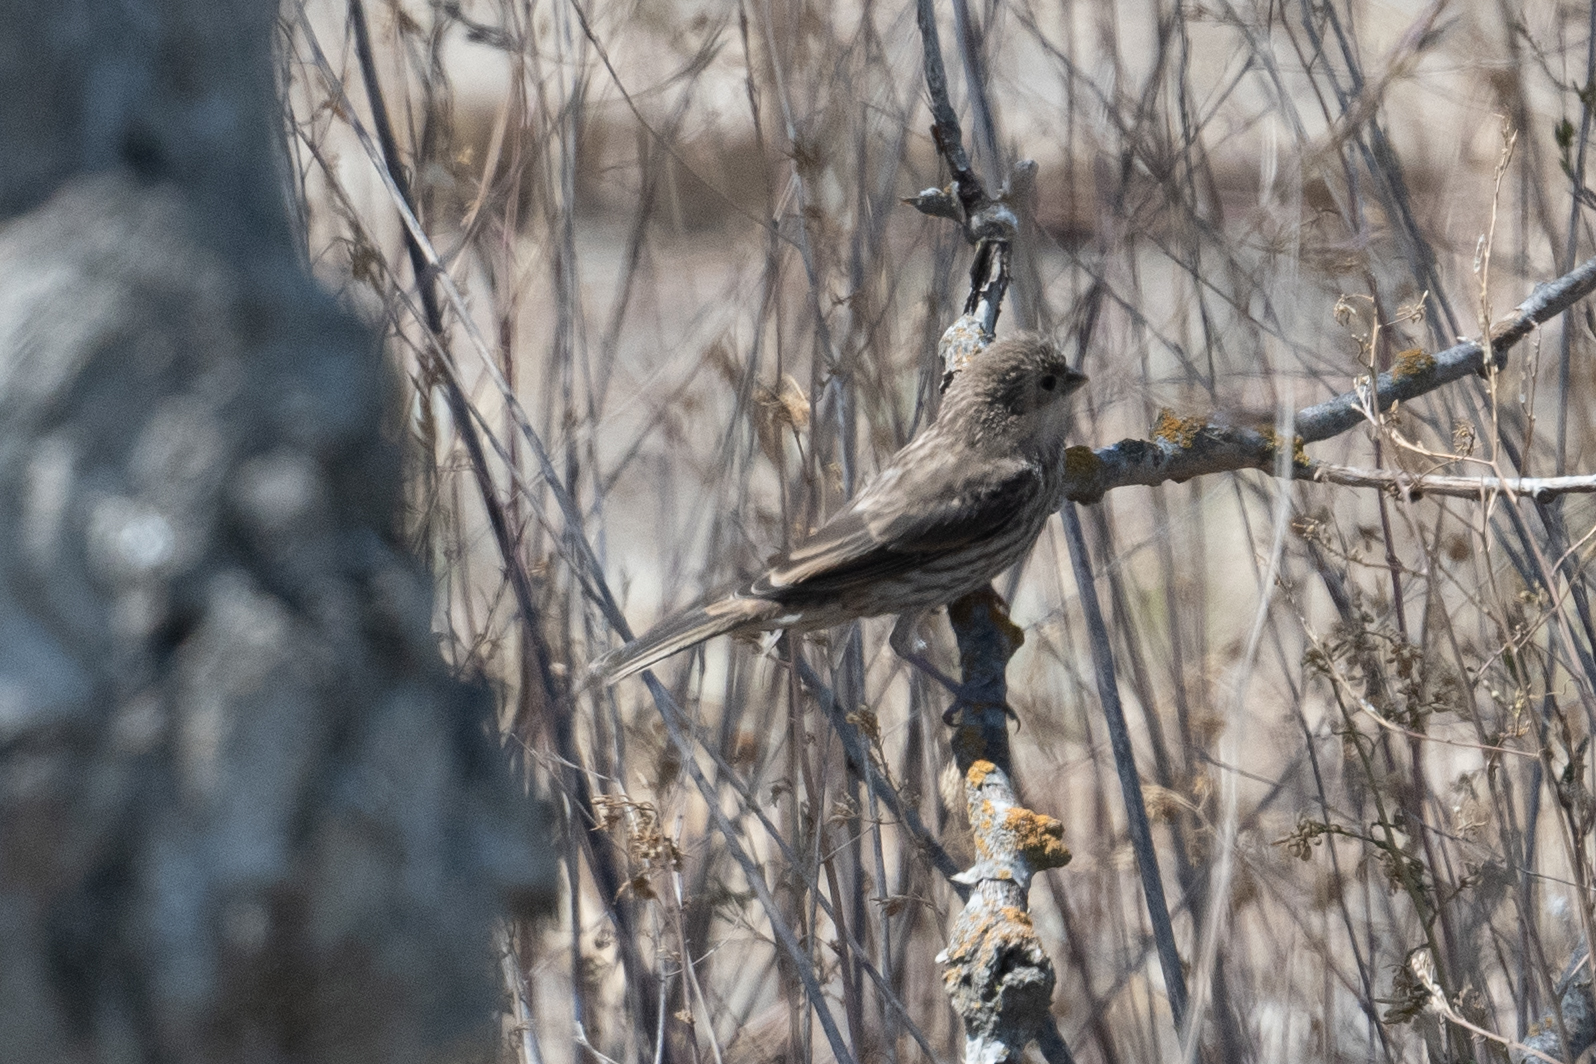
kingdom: Animalia
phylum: Chordata
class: Aves
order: Passeriformes
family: Fringillidae
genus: Haemorhous
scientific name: Haemorhous mexicanus
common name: House finch
